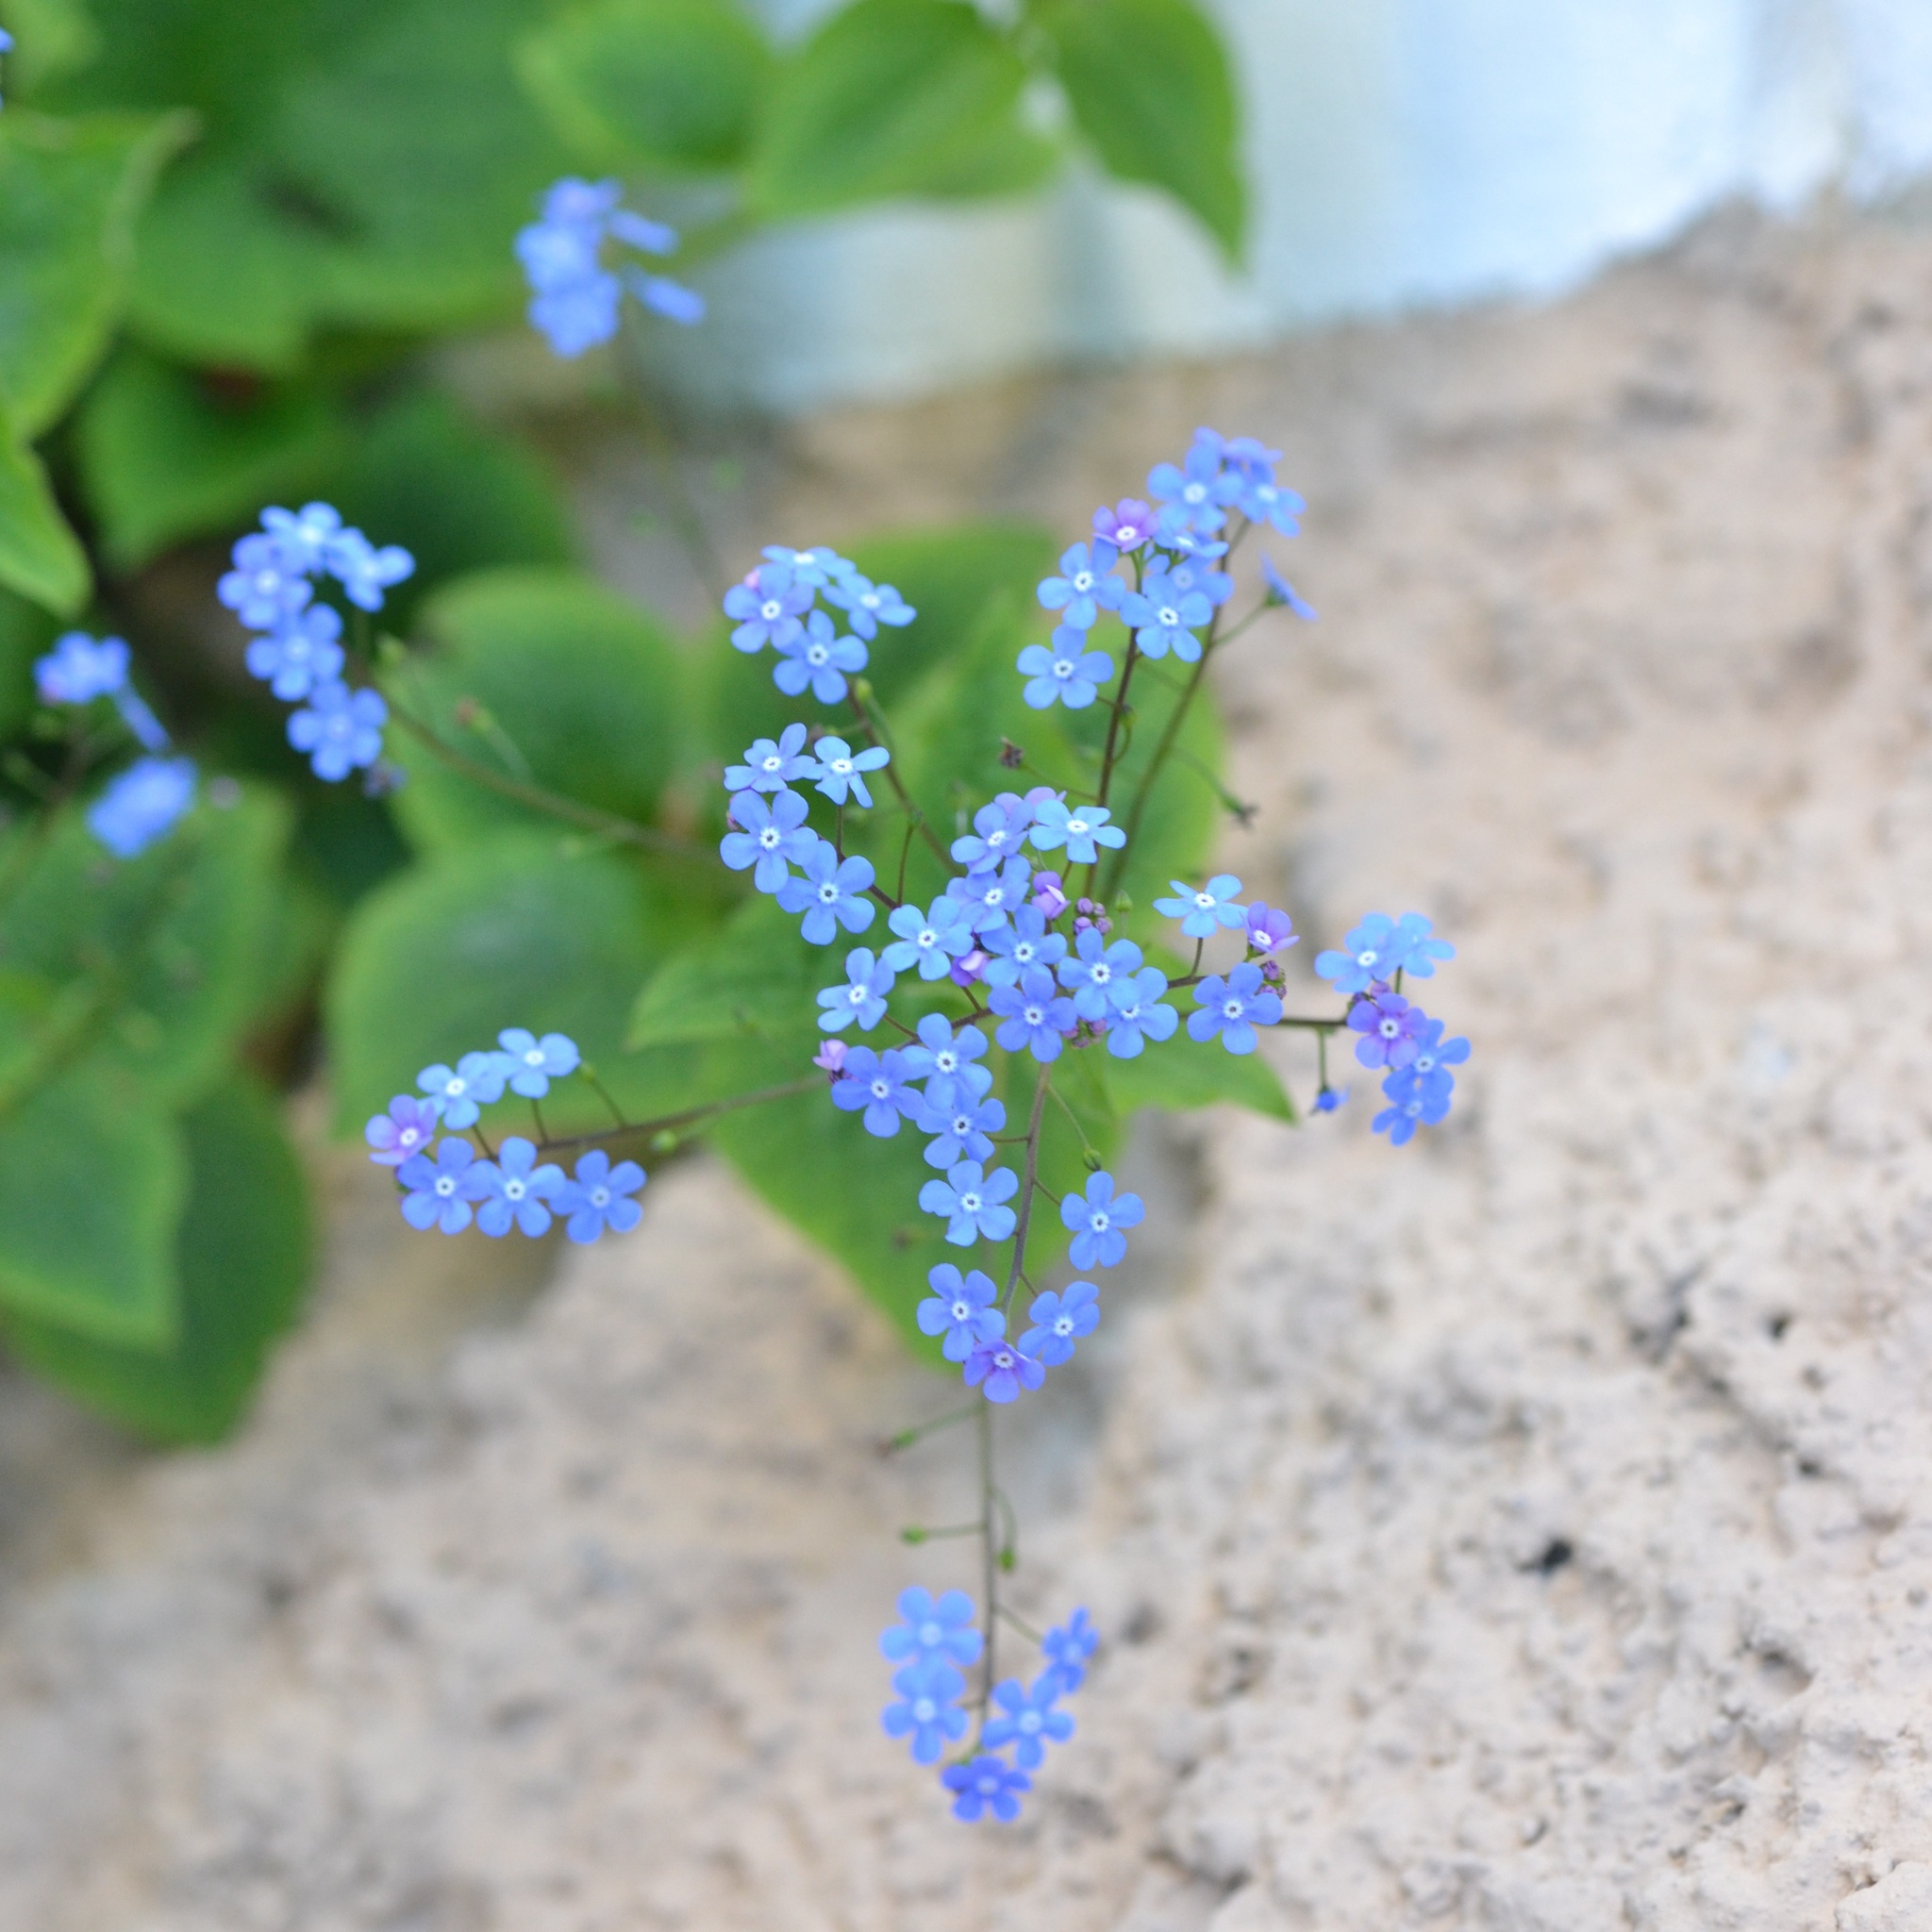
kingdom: Plantae
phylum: Tracheophyta
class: Magnoliopsida
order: Boraginales
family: Boraginaceae
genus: Brunnera
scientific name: Brunnera macrophylla
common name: Great forget-me-not
